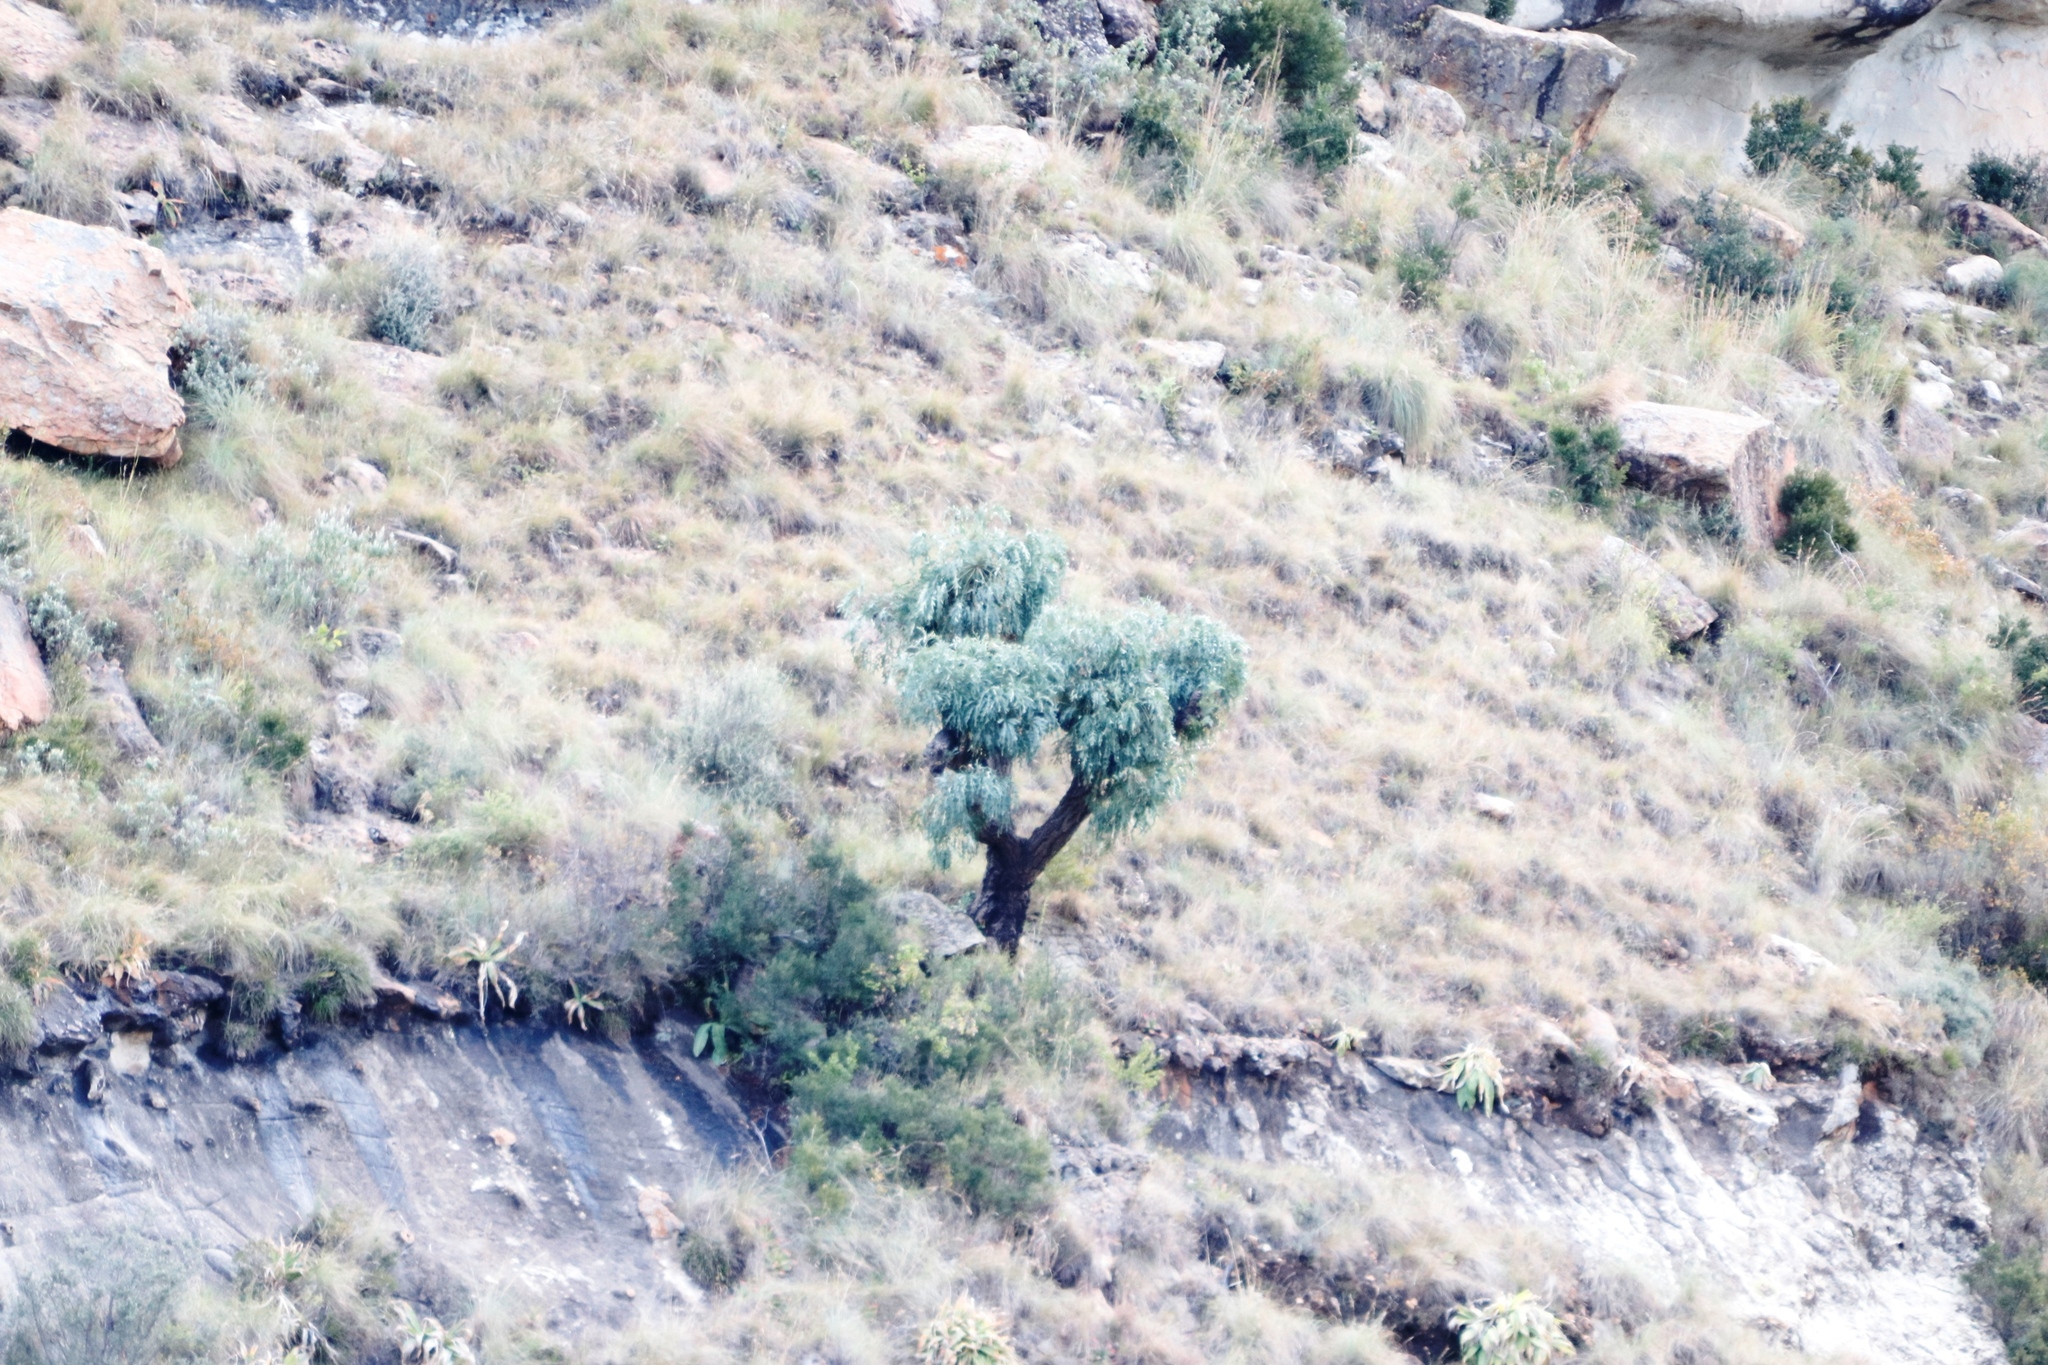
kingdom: Plantae
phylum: Tracheophyta
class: Magnoliopsida
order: Apiales
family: Araliaceae
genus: Cussonia
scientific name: Cussonia paniculata
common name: Cabbagetree
